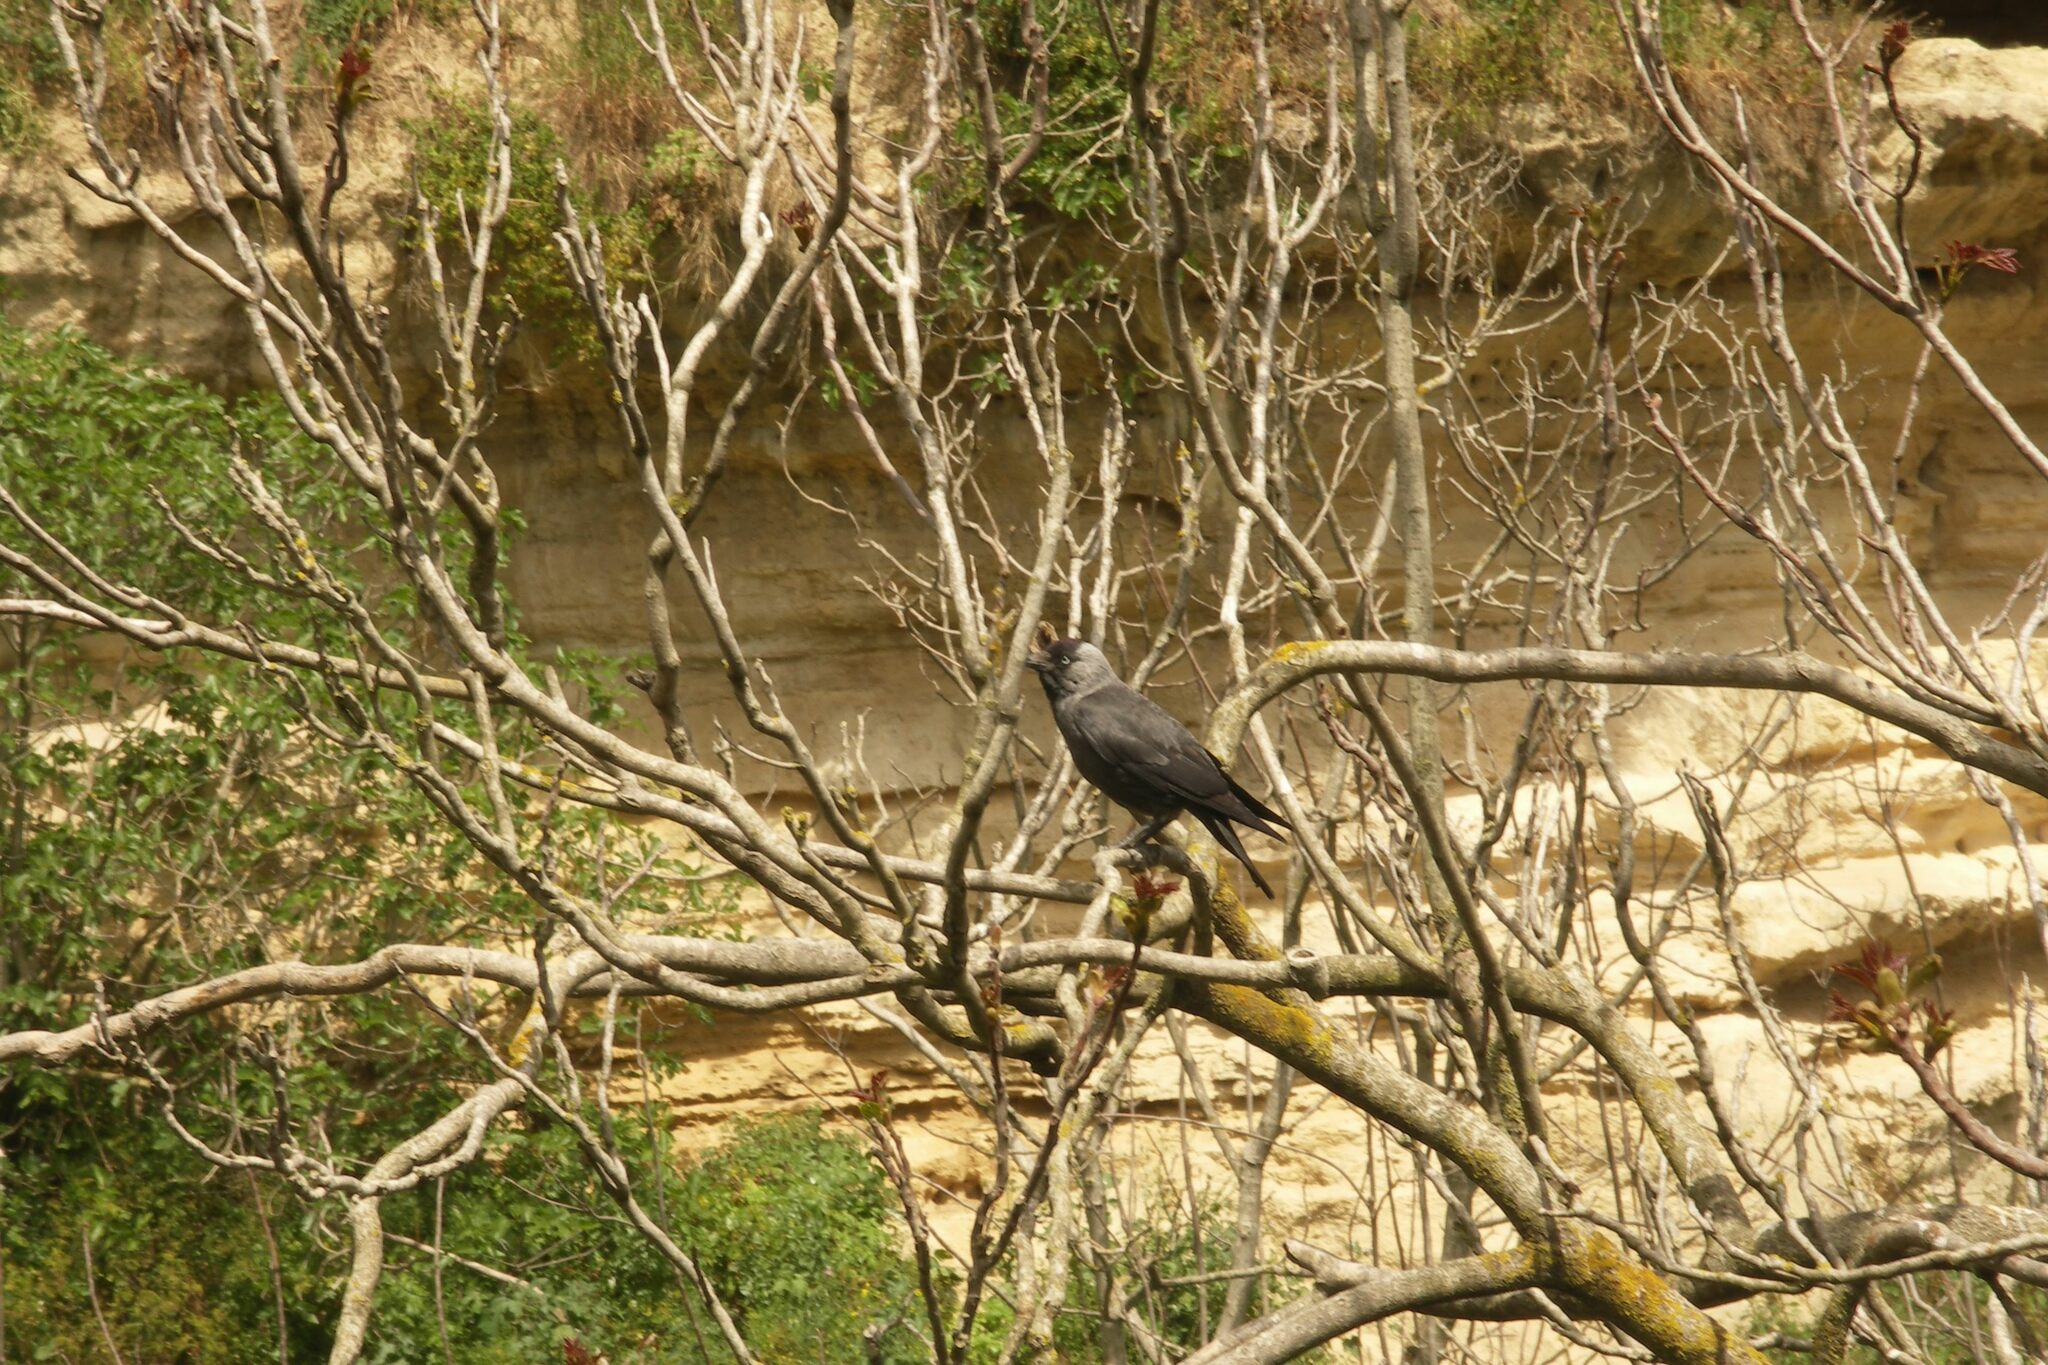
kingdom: Animalia
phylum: Chordata
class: Aves
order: Passeriformes
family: Corvidae
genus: Coloeus
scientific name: Coloeus monedula
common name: Western jackdaw
